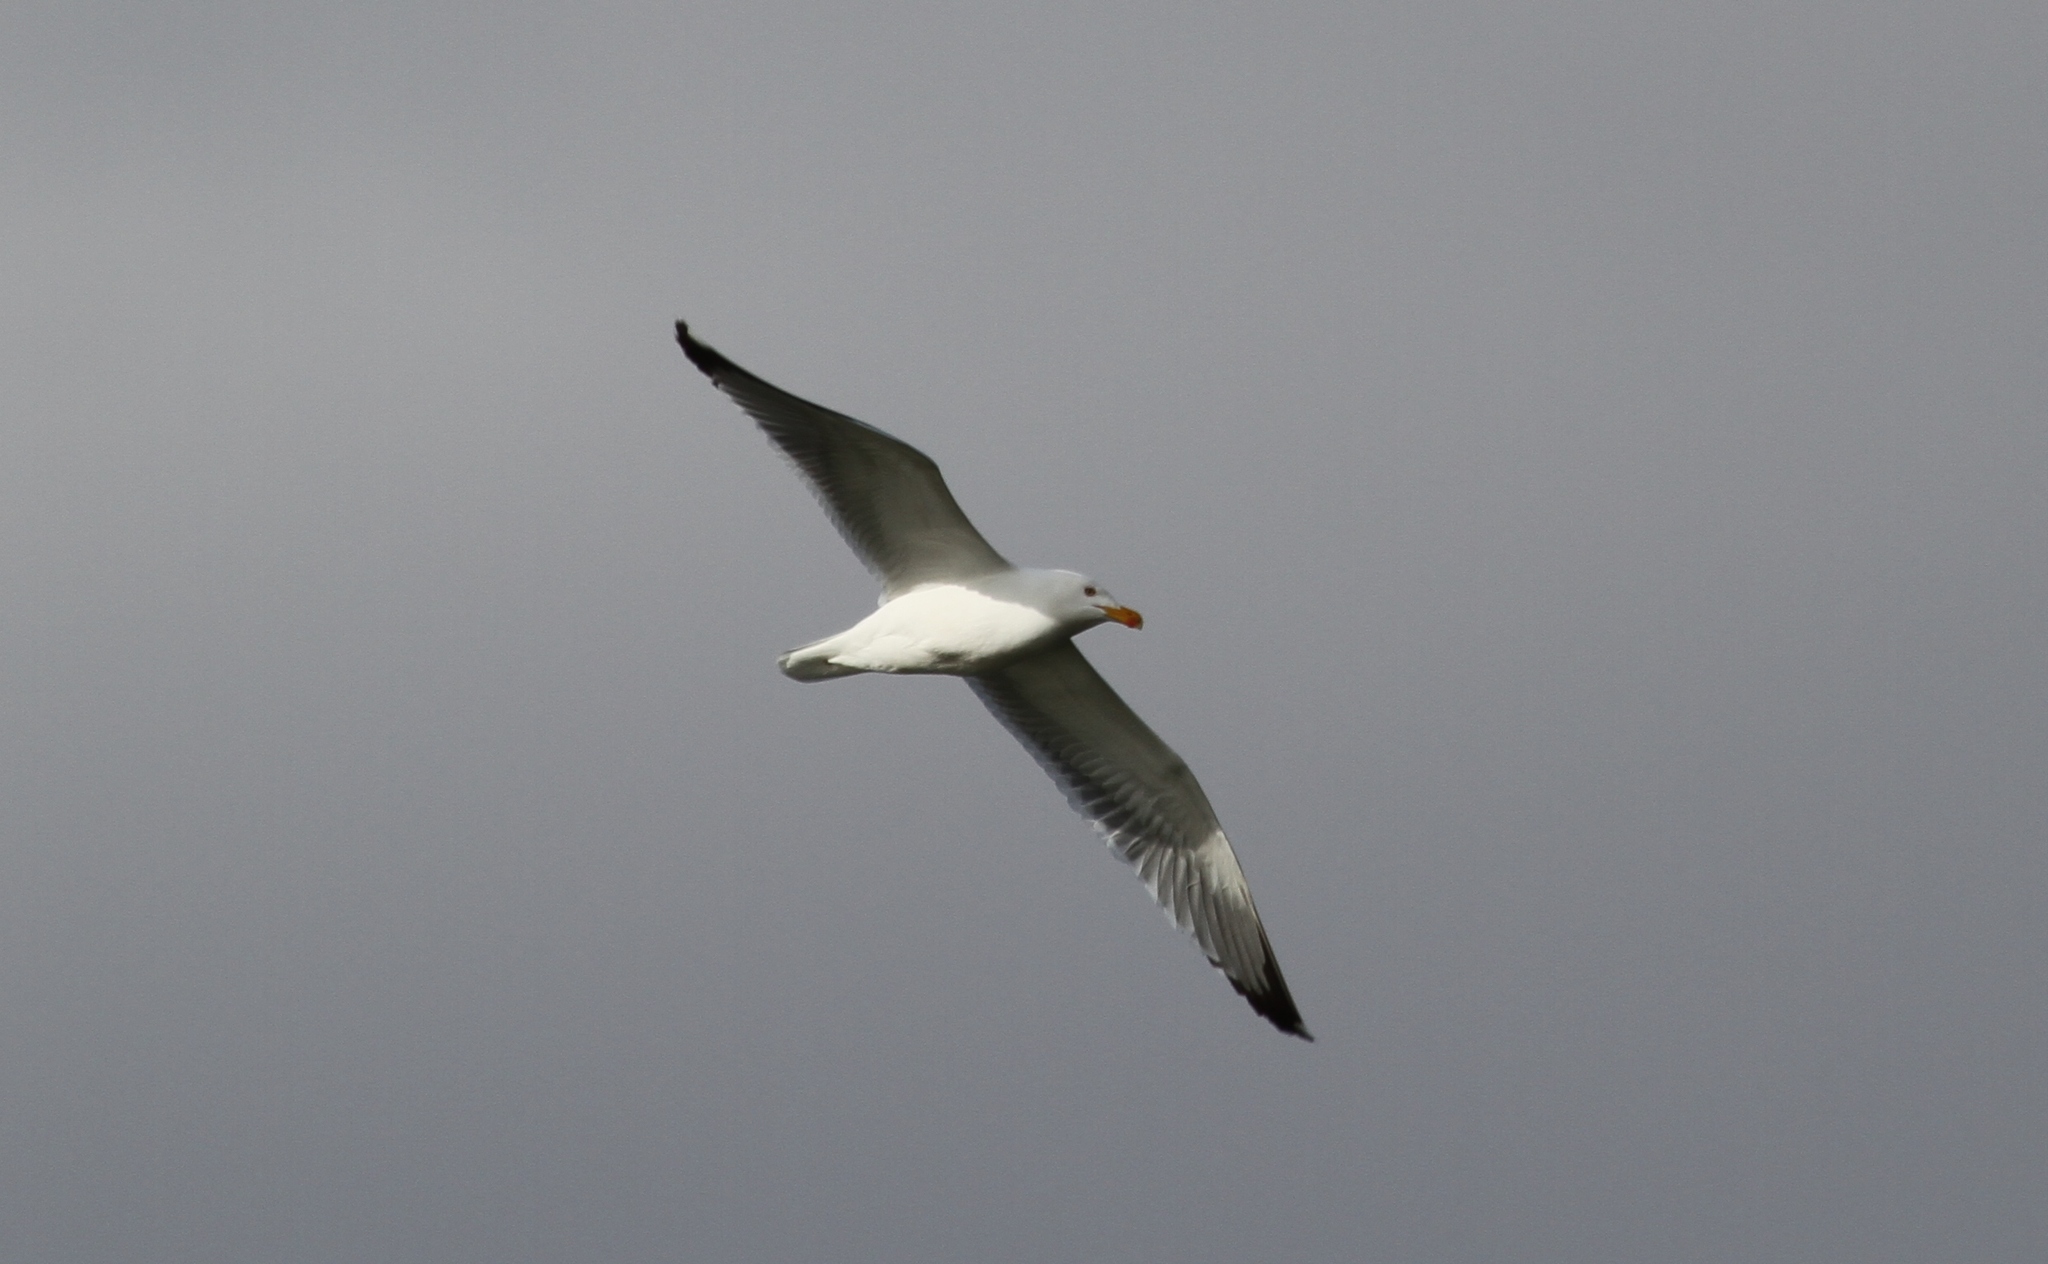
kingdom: Animalia
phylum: Chordata
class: Aves
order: Charadriiformes
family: Laridae
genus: Larus
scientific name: Larus michahellis
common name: Yellow-legged gull
